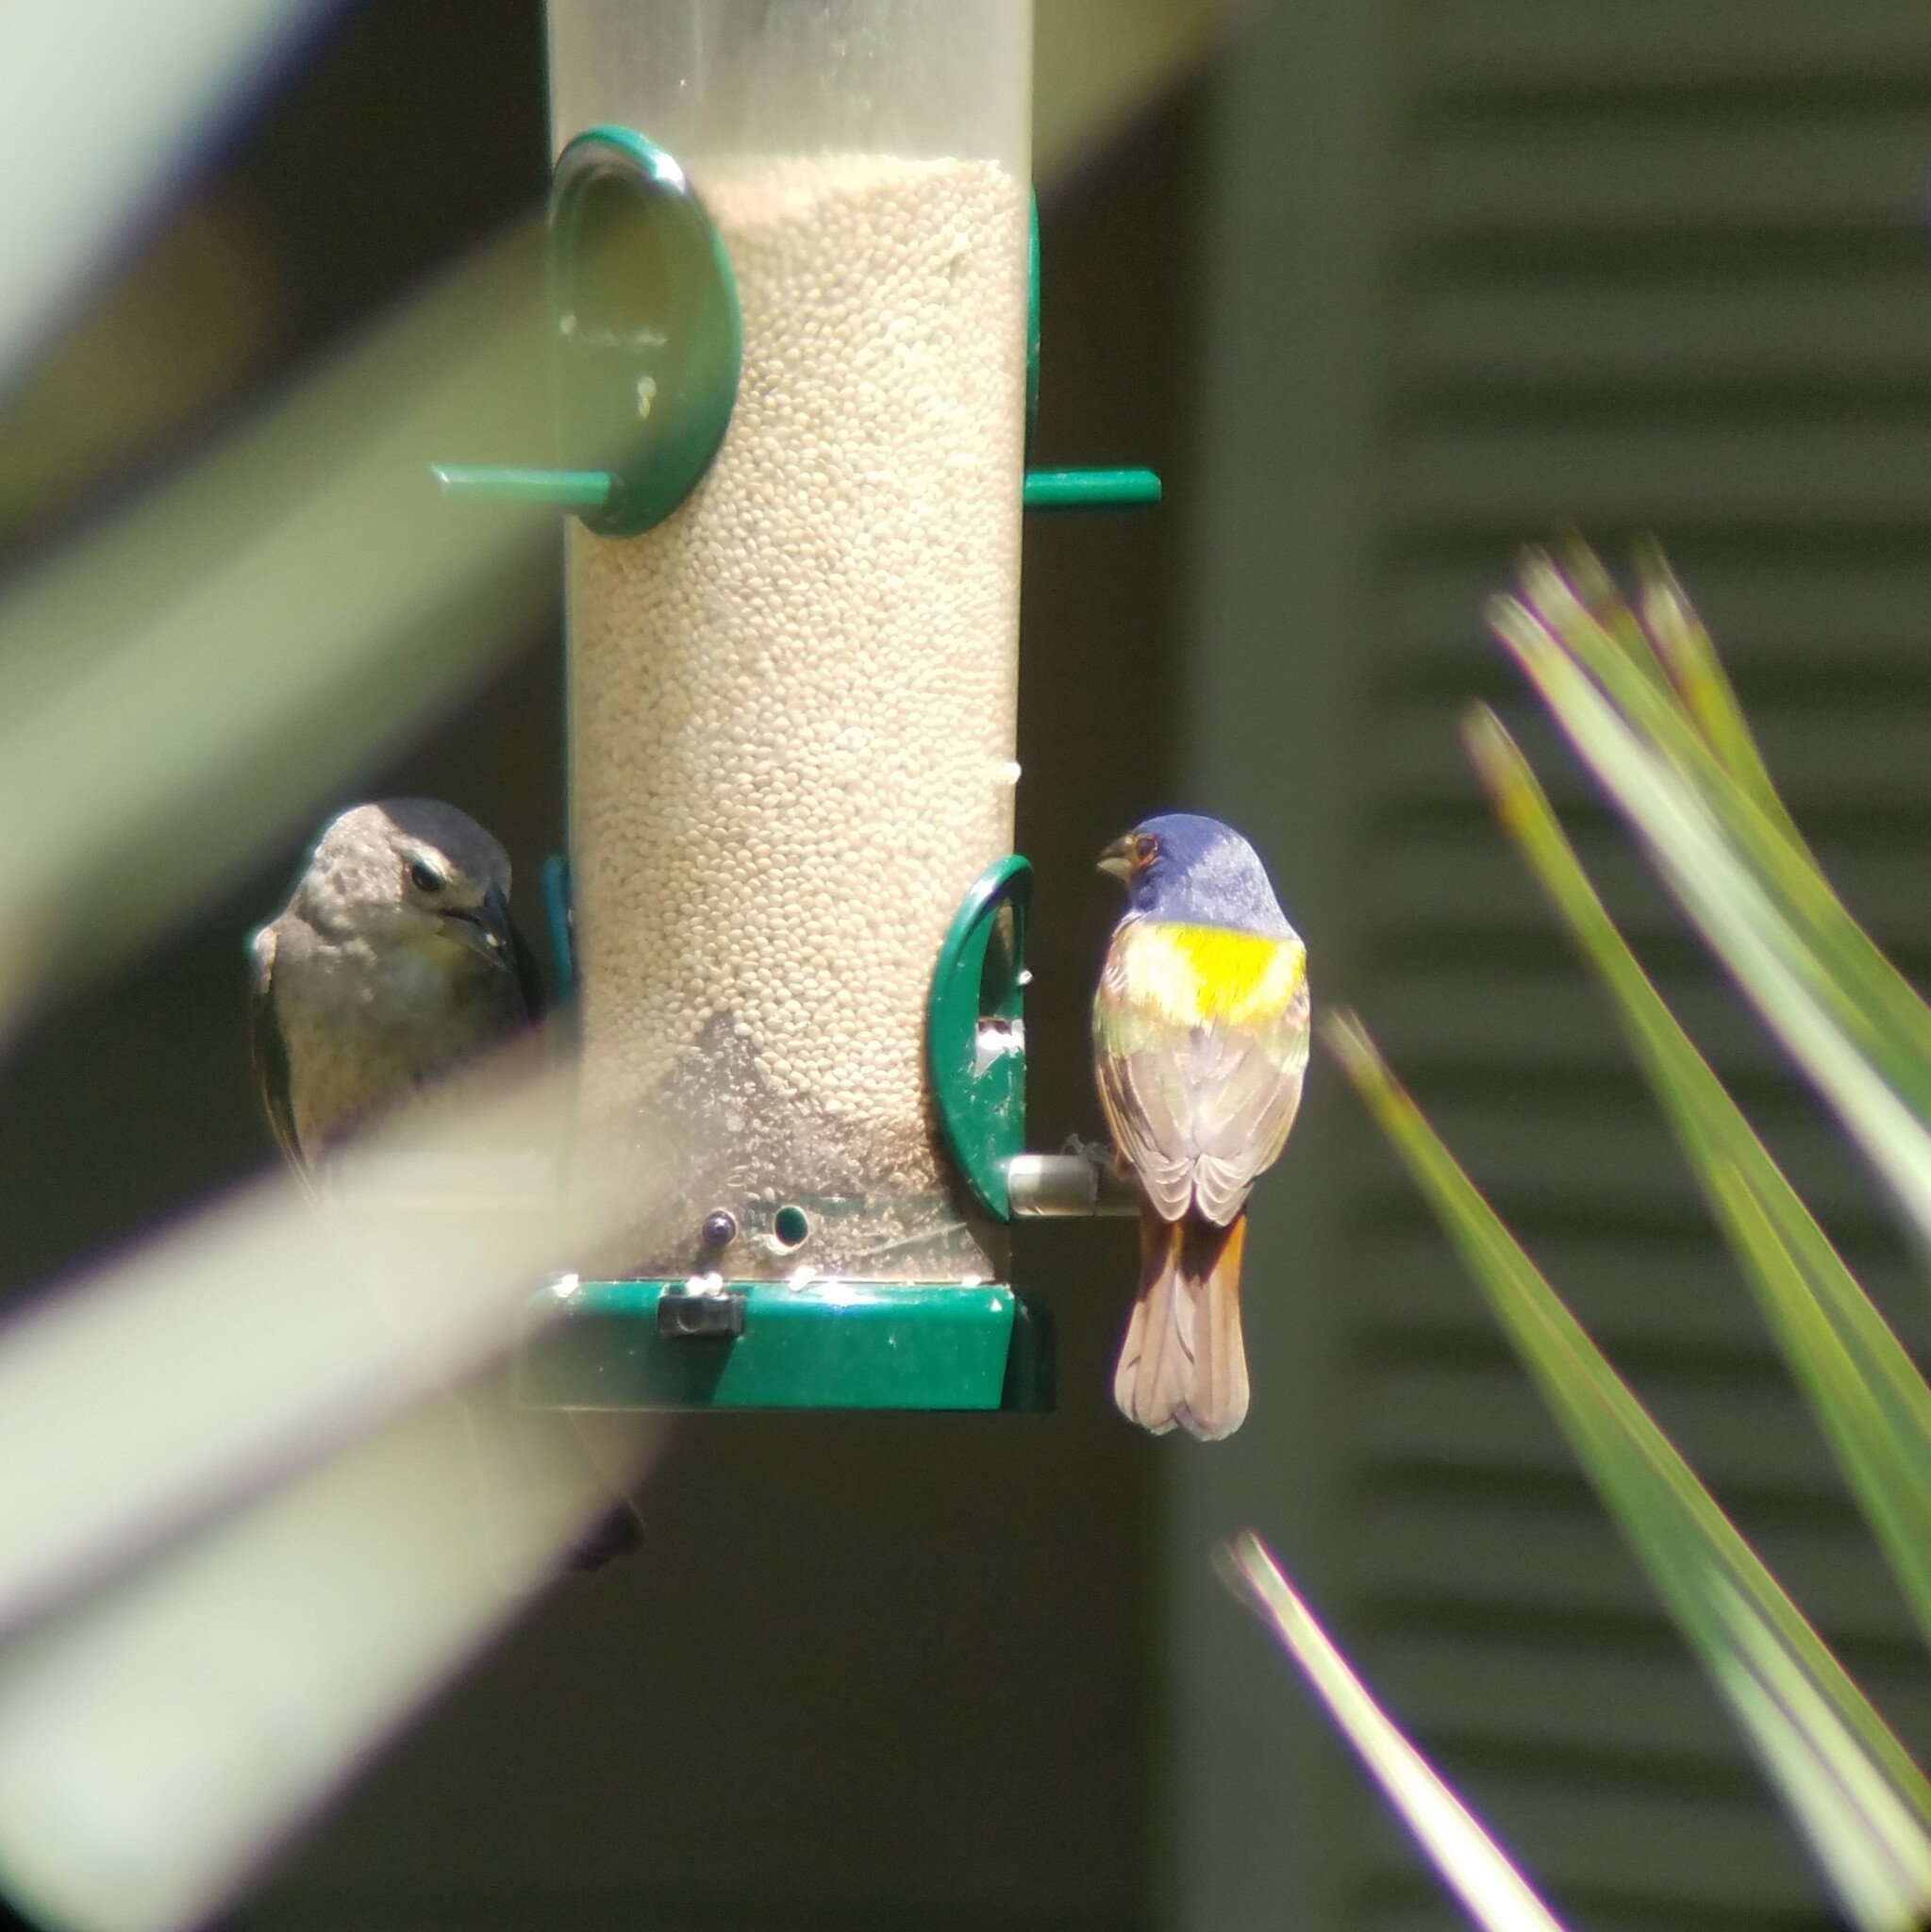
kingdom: Animalia
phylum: Chordata
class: Aves
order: Passeriformes
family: Cardinalidae
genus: Passerina
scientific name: Passerina ciris
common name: Painted bunting
